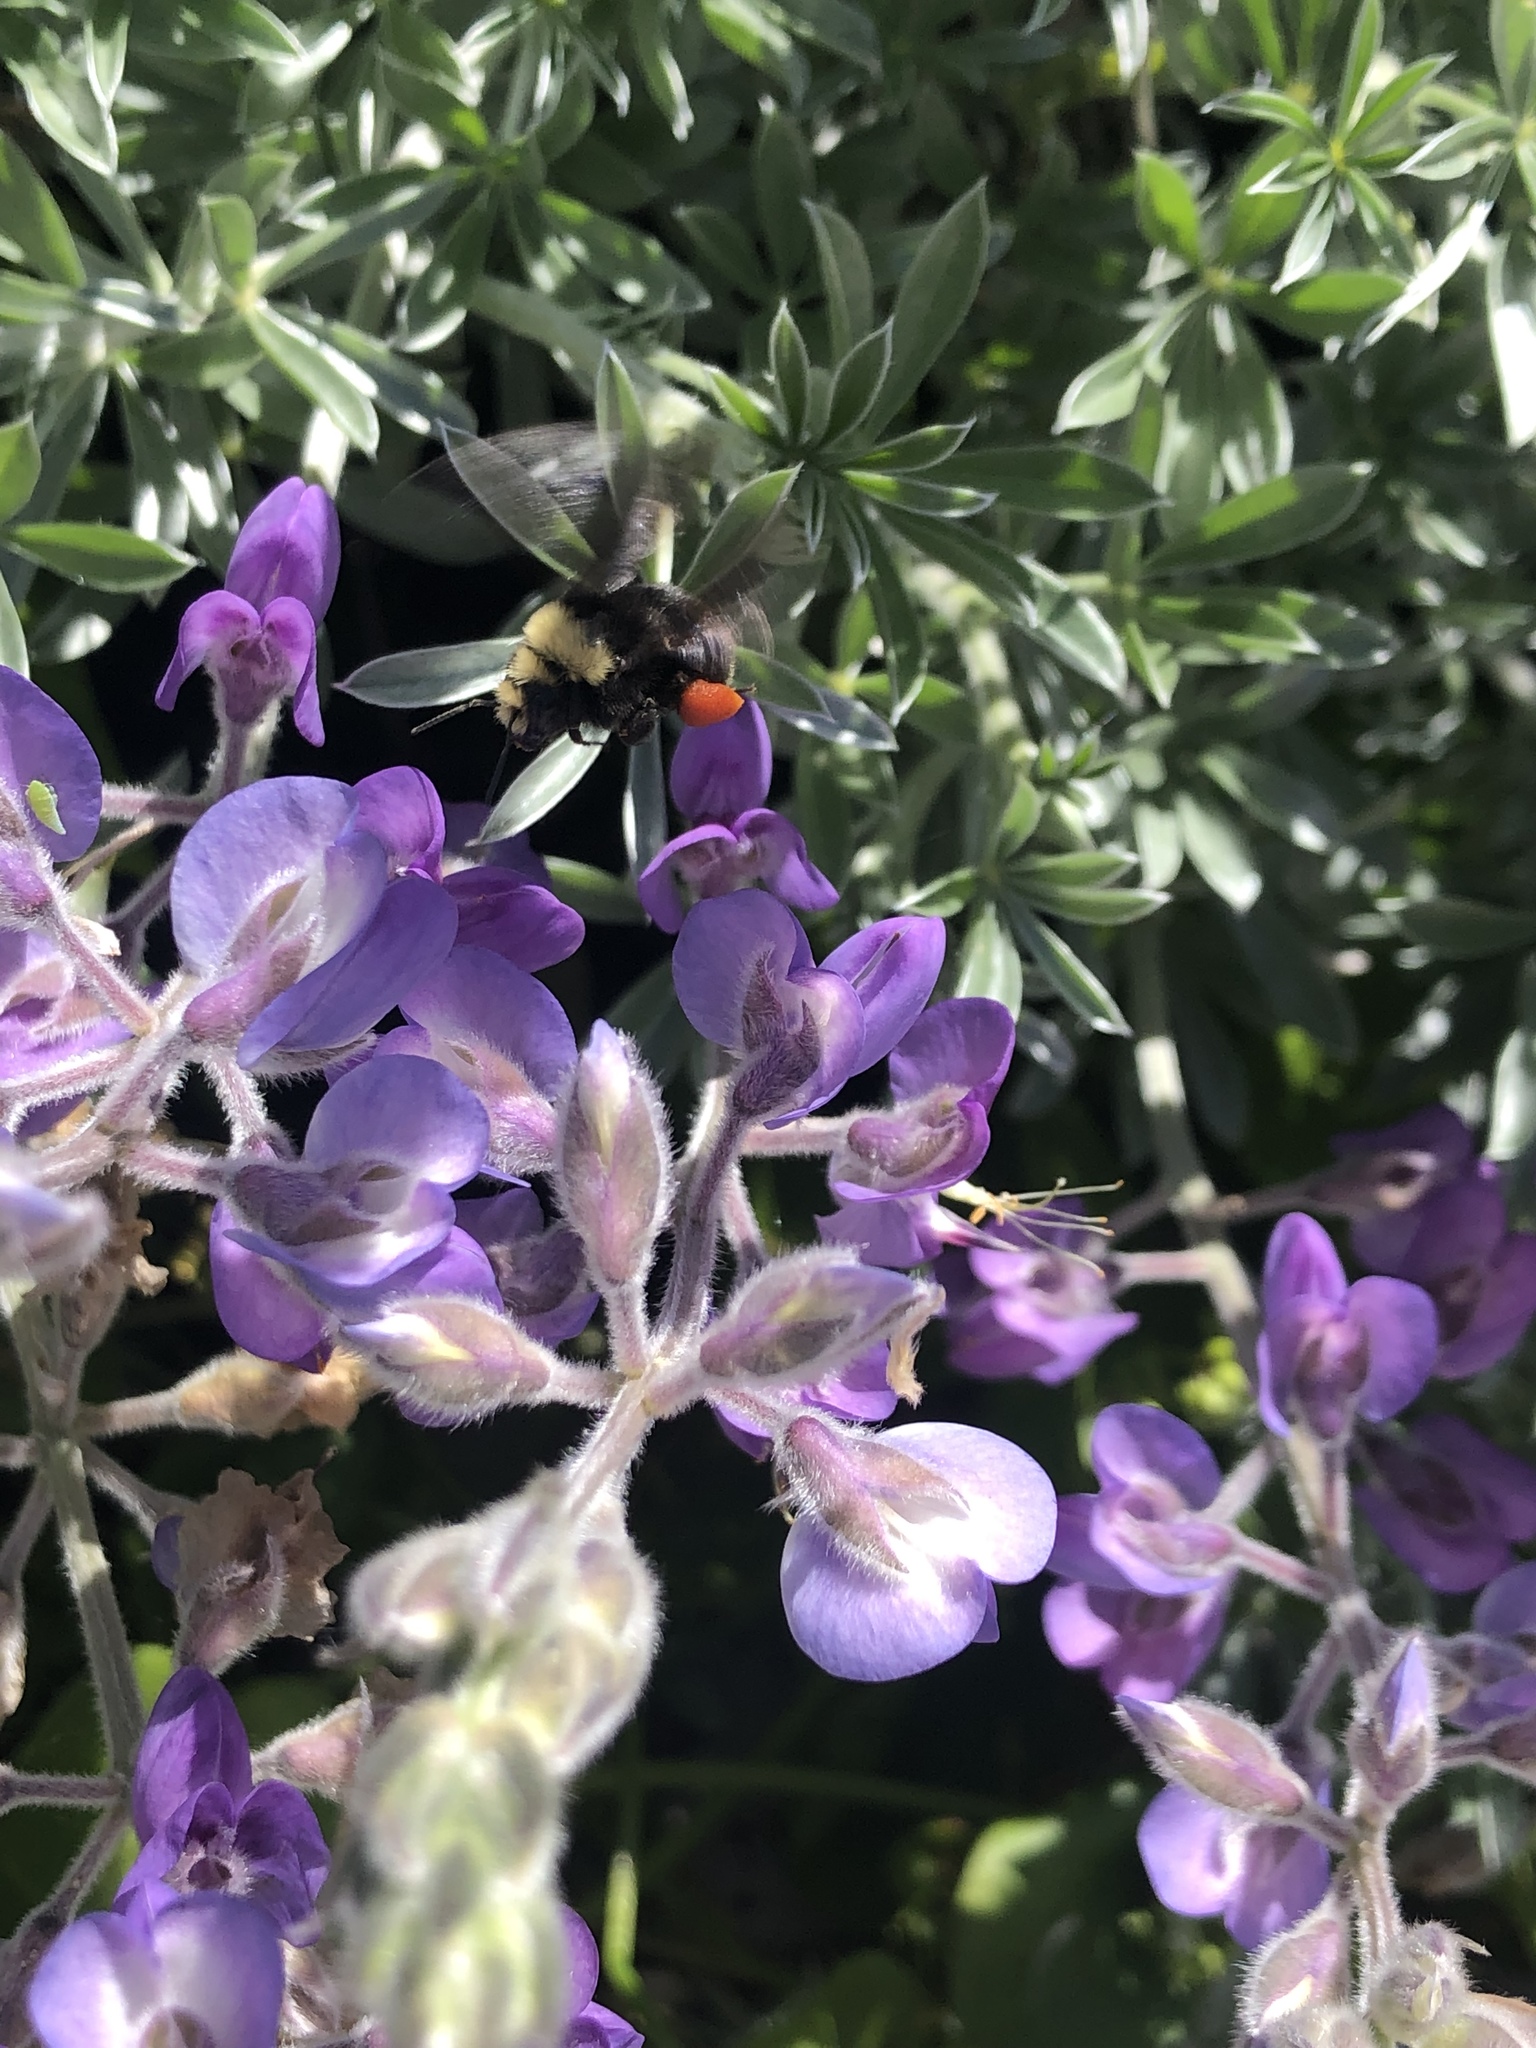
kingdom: Animalia
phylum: Arthropoda
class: Insecta
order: Hymenoptera
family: Apidae
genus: Pyrobombus
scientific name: Pyrobombus
